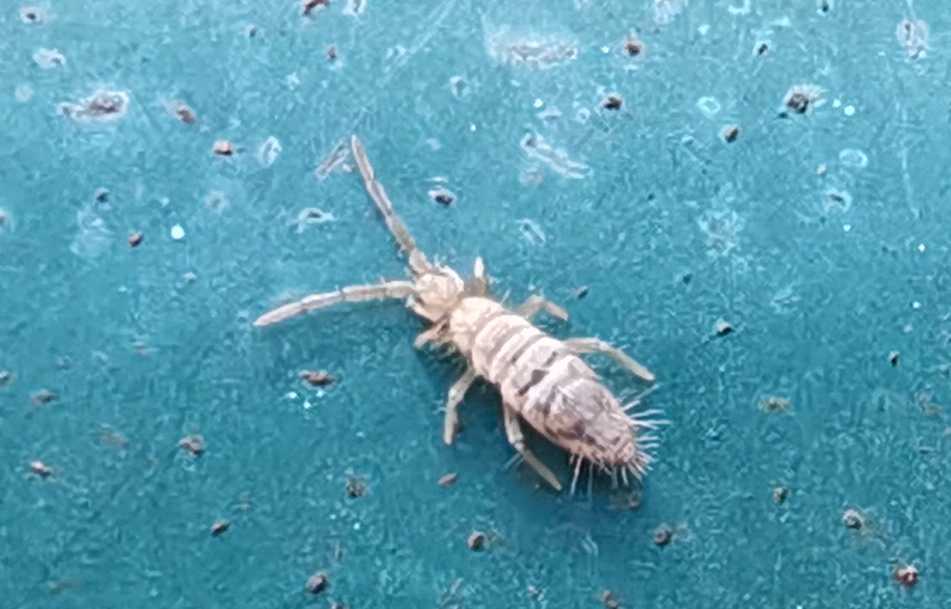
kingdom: Animalia
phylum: Arthropoda
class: Collembola
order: Entomobryomorpha
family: Entomobryidae
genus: Entomobrya
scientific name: Entomobrya nivalis
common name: Cosmopolitan springtail
